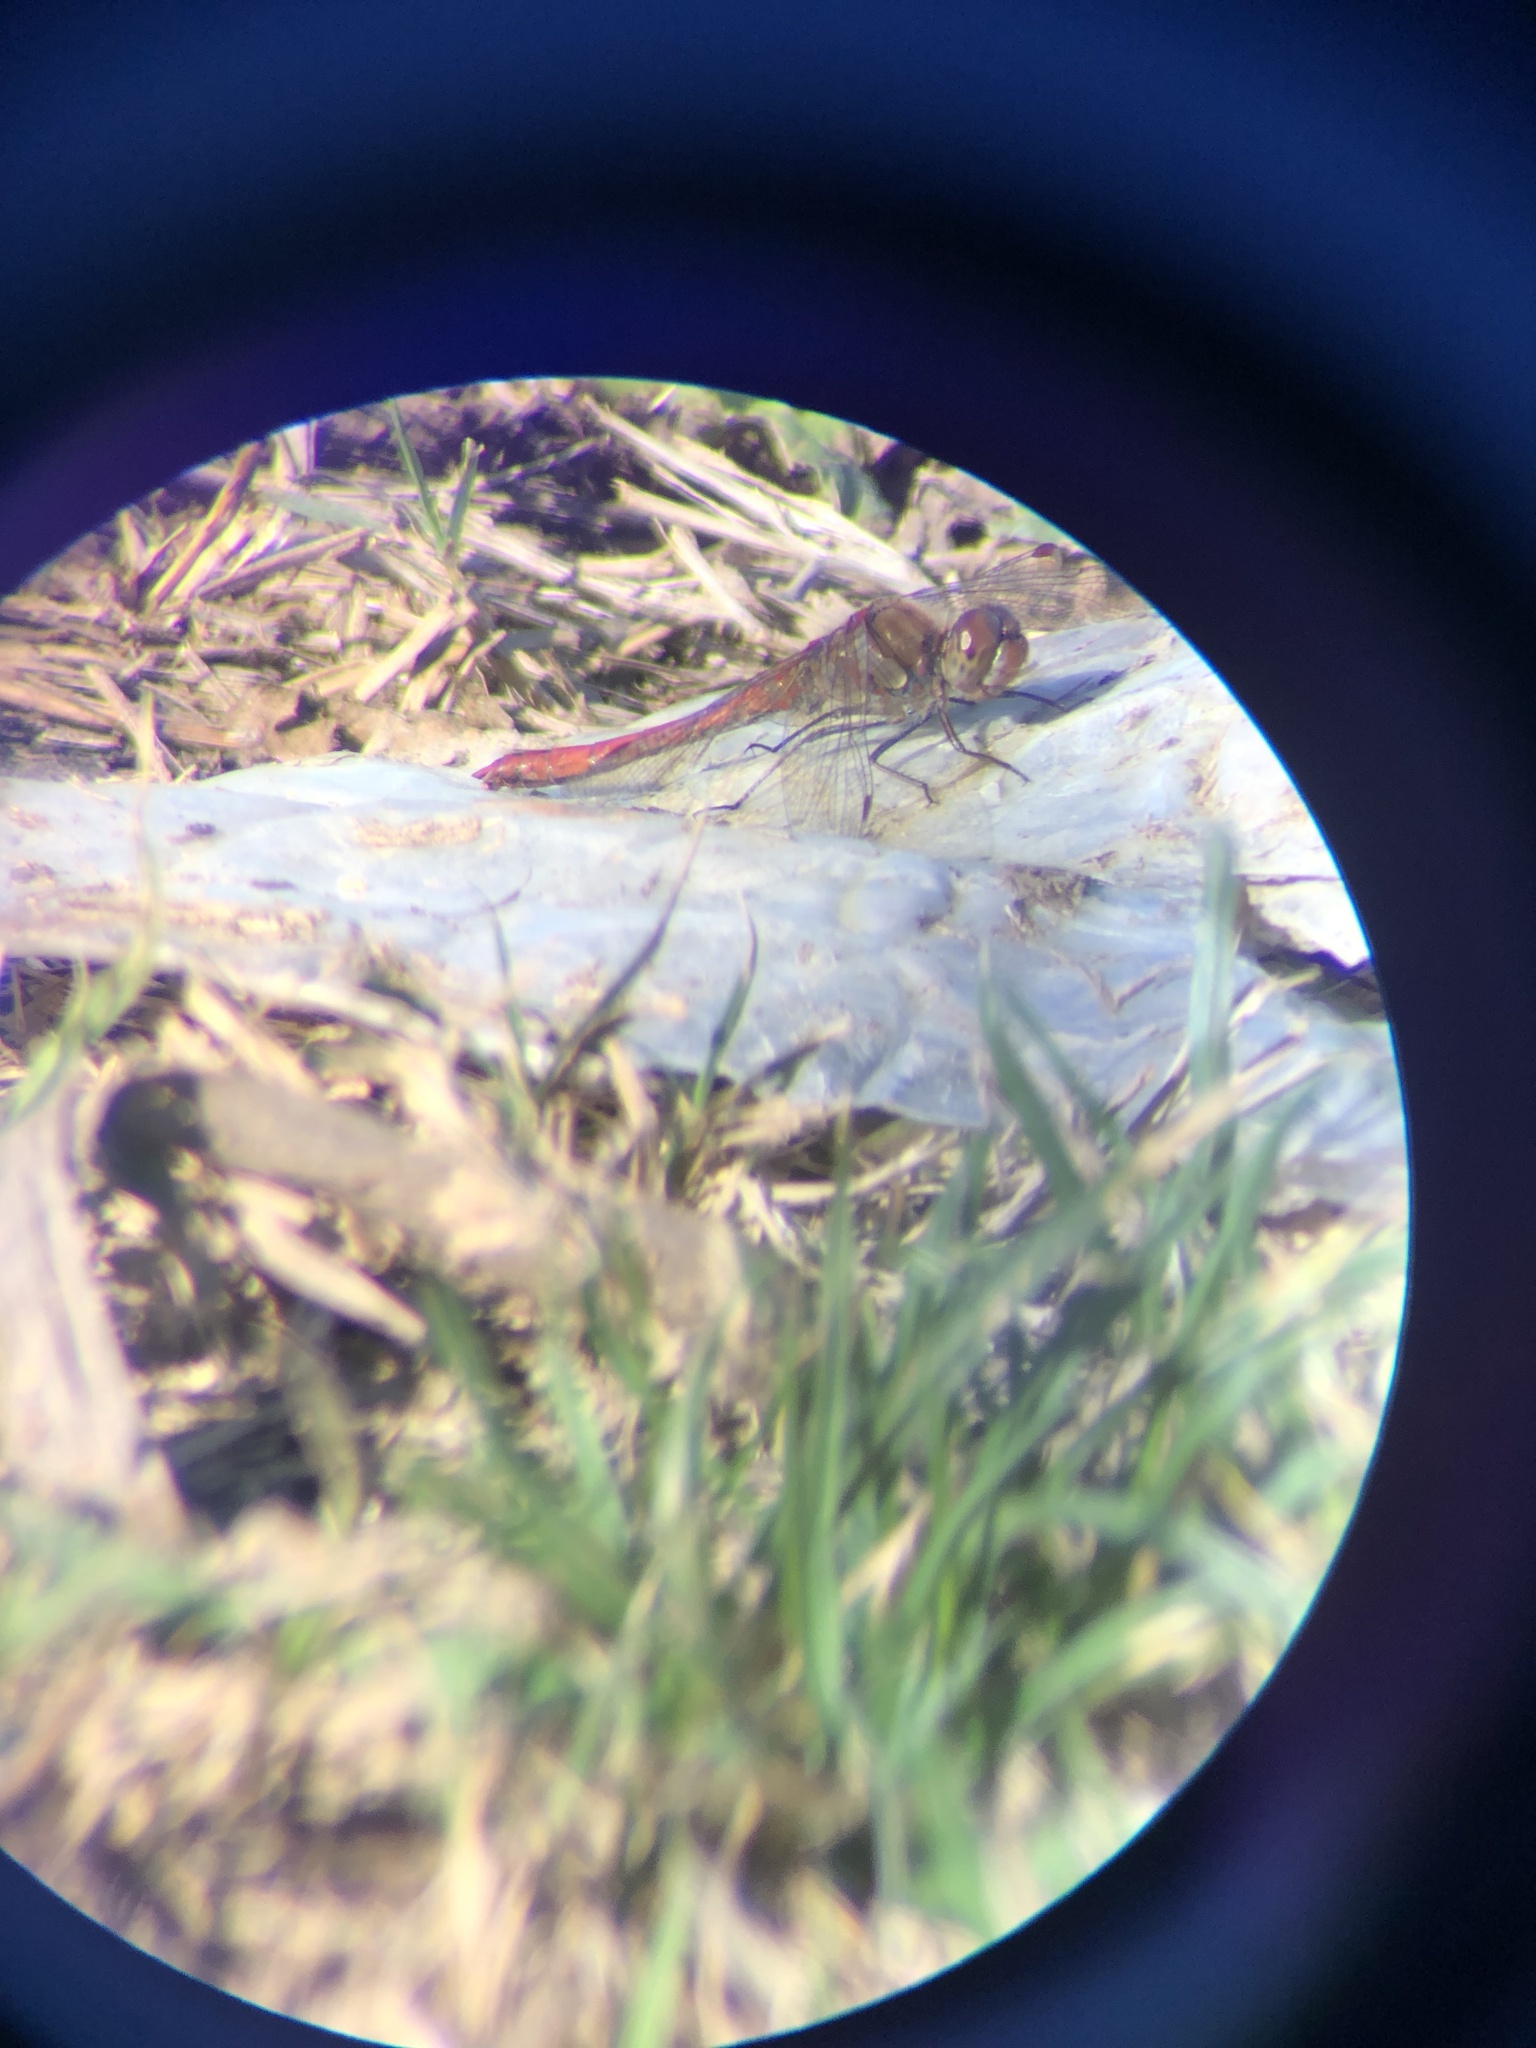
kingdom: Animalia
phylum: Arthropoda
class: Insecta
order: Odonata
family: Libellulidae
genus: Sympetrum
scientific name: Sympetrum striolatum
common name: Common darter
